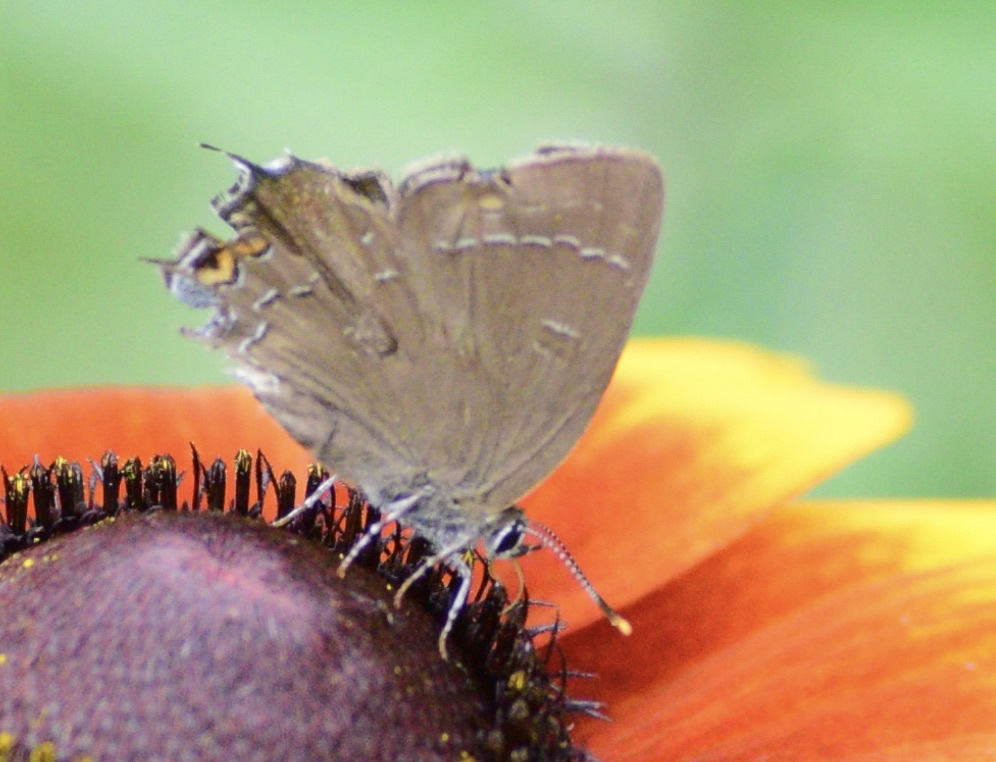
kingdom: Animalia
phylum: Arthropoda
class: Insecta
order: Lepidoptera
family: Lycaenidae
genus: Satyrium
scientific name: Satyrium calanus
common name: Banded hairstreak
